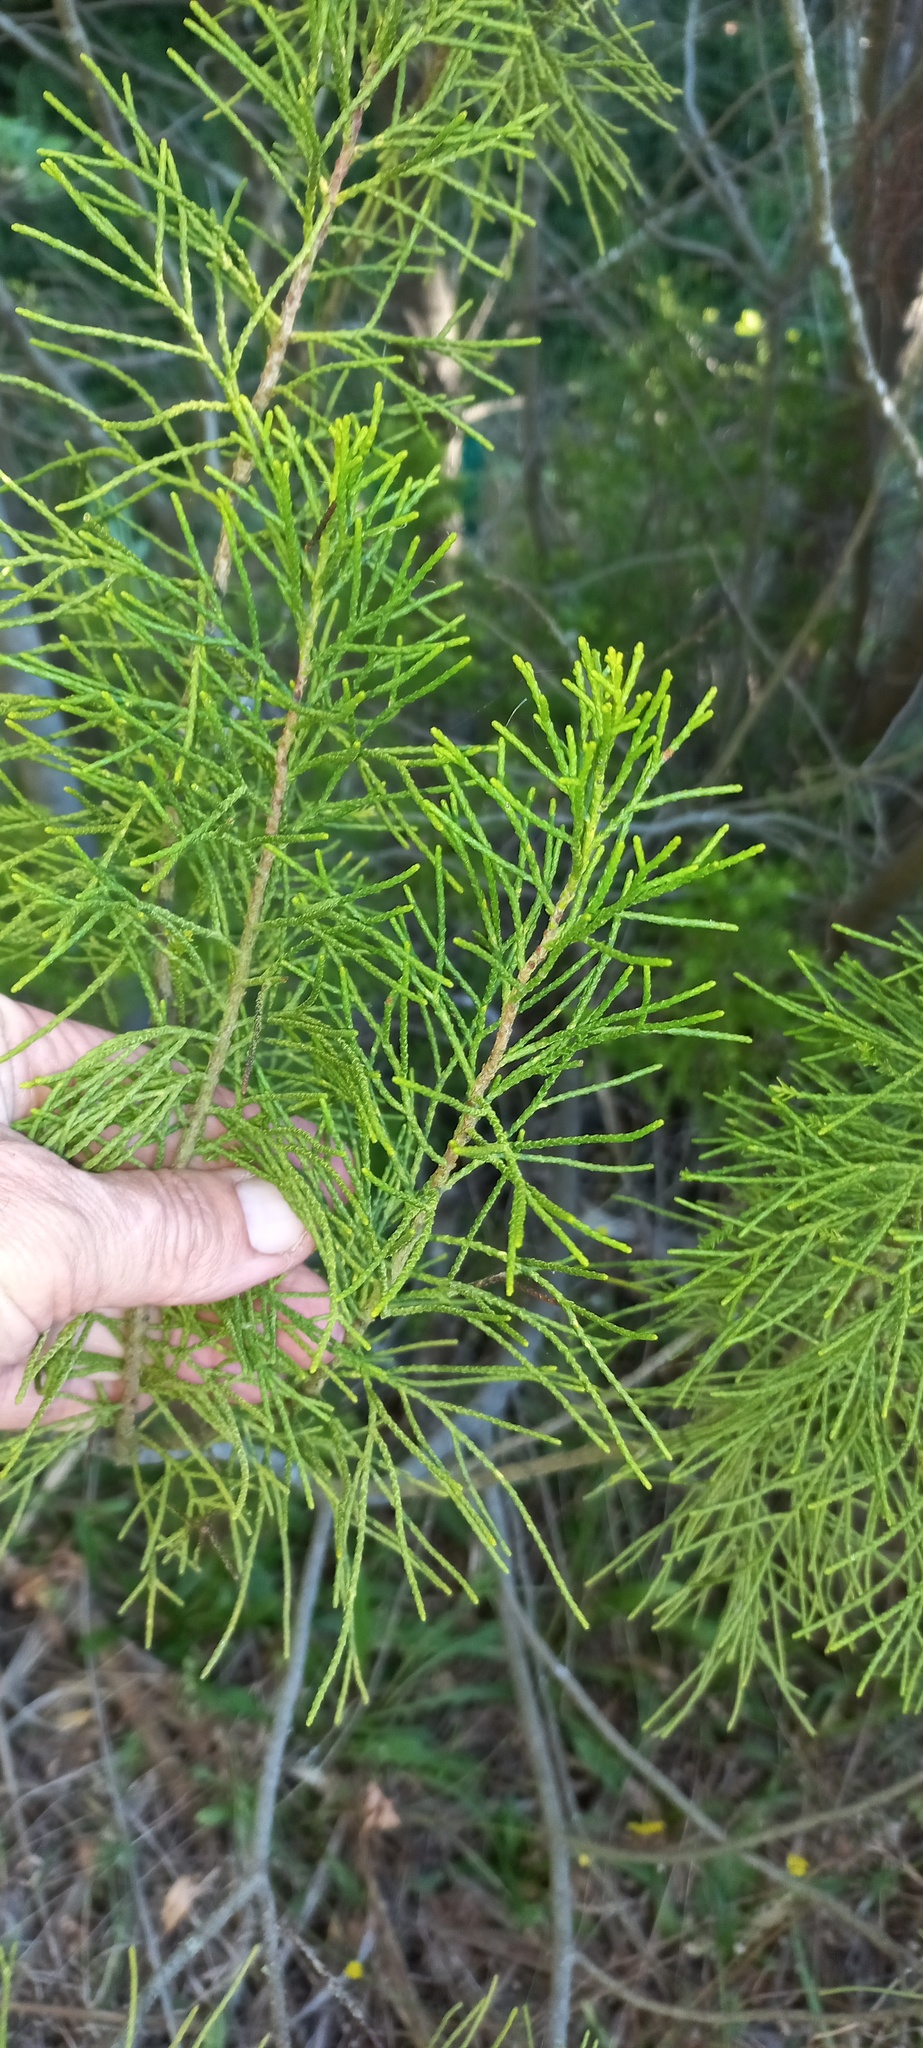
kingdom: Plantae
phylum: Tracheophyta
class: Pinopsida
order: Pinales
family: Podocarpaceae
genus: Manoao
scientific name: Manoao colensoi
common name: Silver pine
